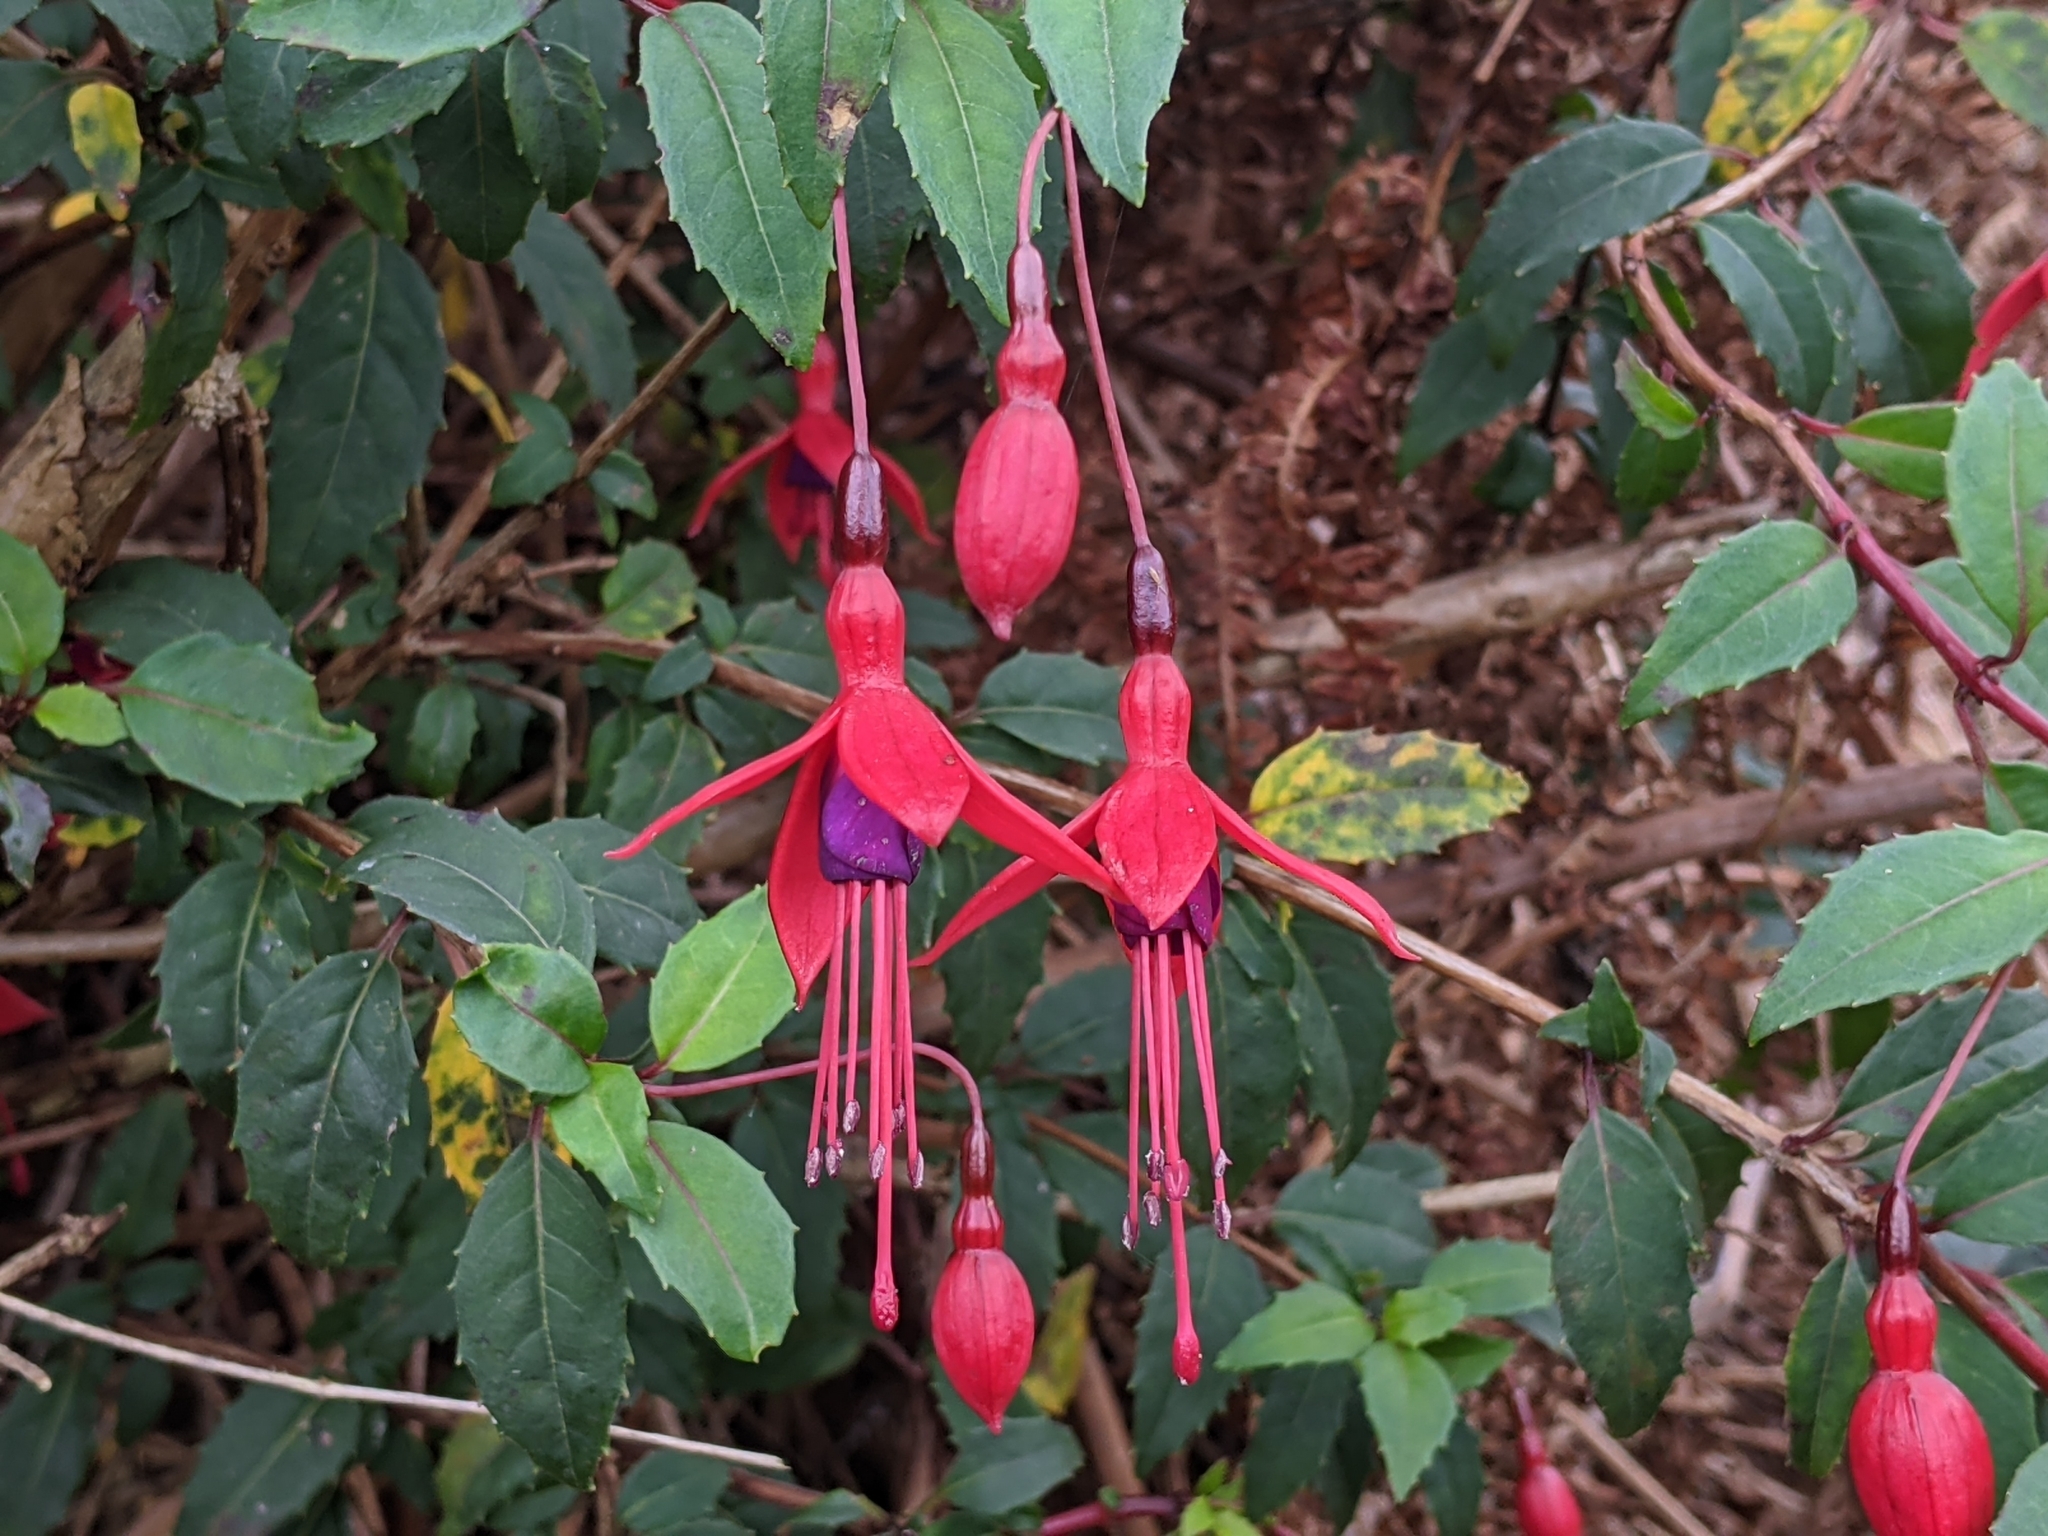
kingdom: Plantae
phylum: Tracheophyta
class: Magnoliopsida
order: Myrtales
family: Onagraceae
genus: Fuchsia
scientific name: Fuchsia magellanica
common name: Hardy fuchsia
